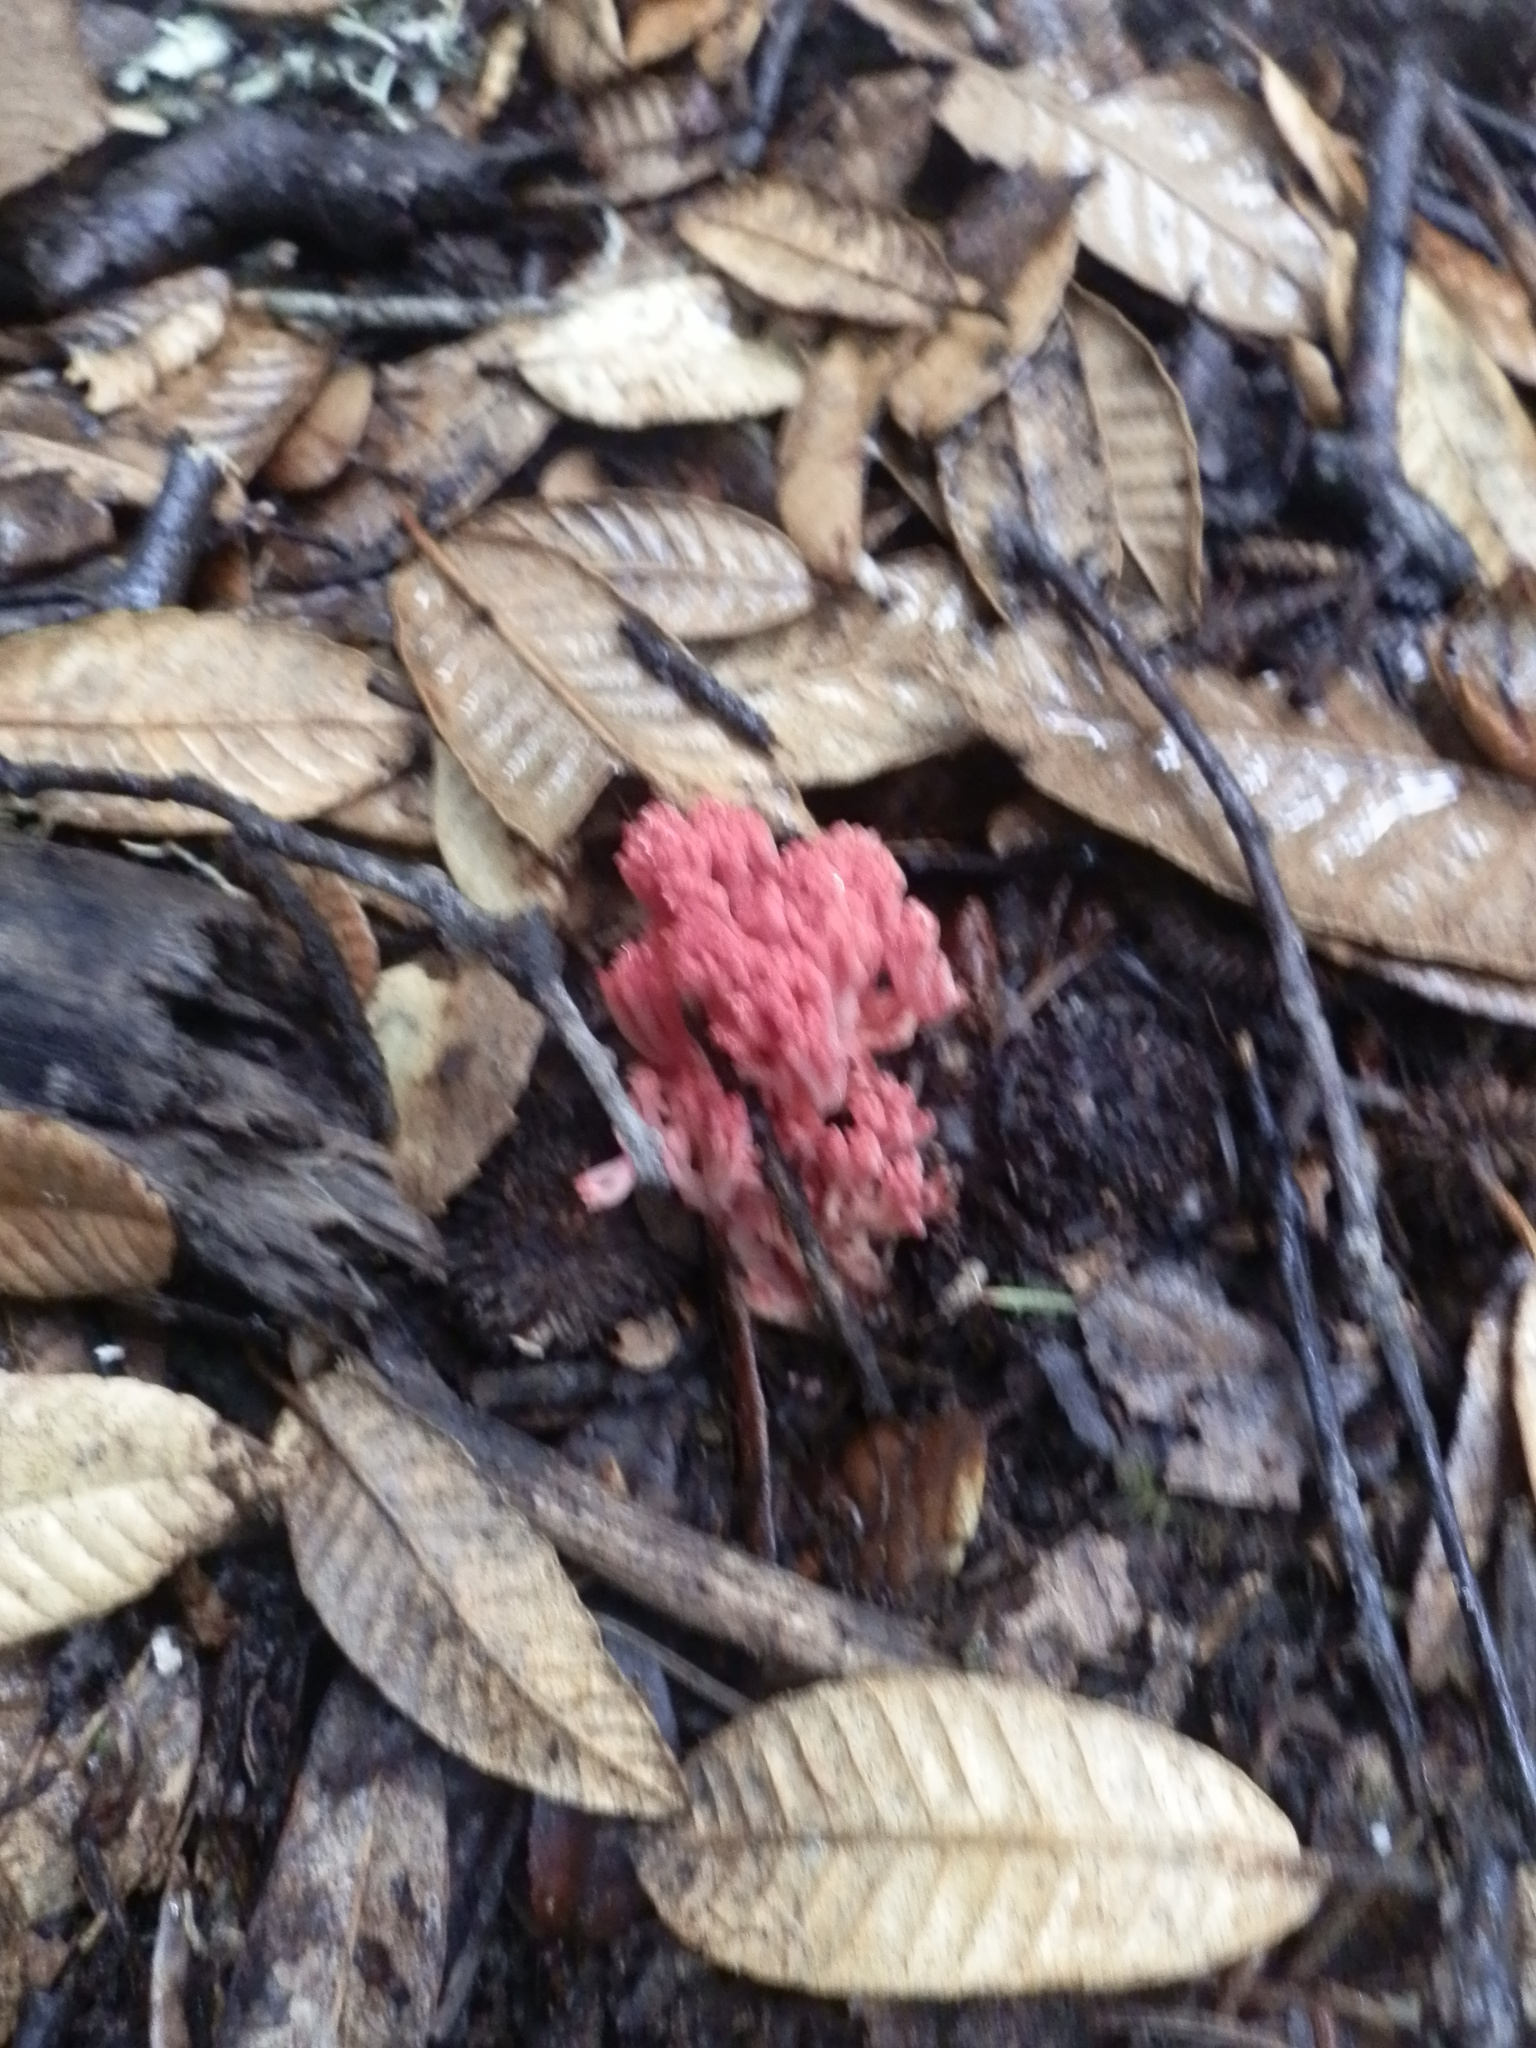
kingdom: Fungi
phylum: Basidiomycota
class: Agaricomycetes
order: Gomphales
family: Gomphaceae
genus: Ramaria
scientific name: Ramaria araiospora
